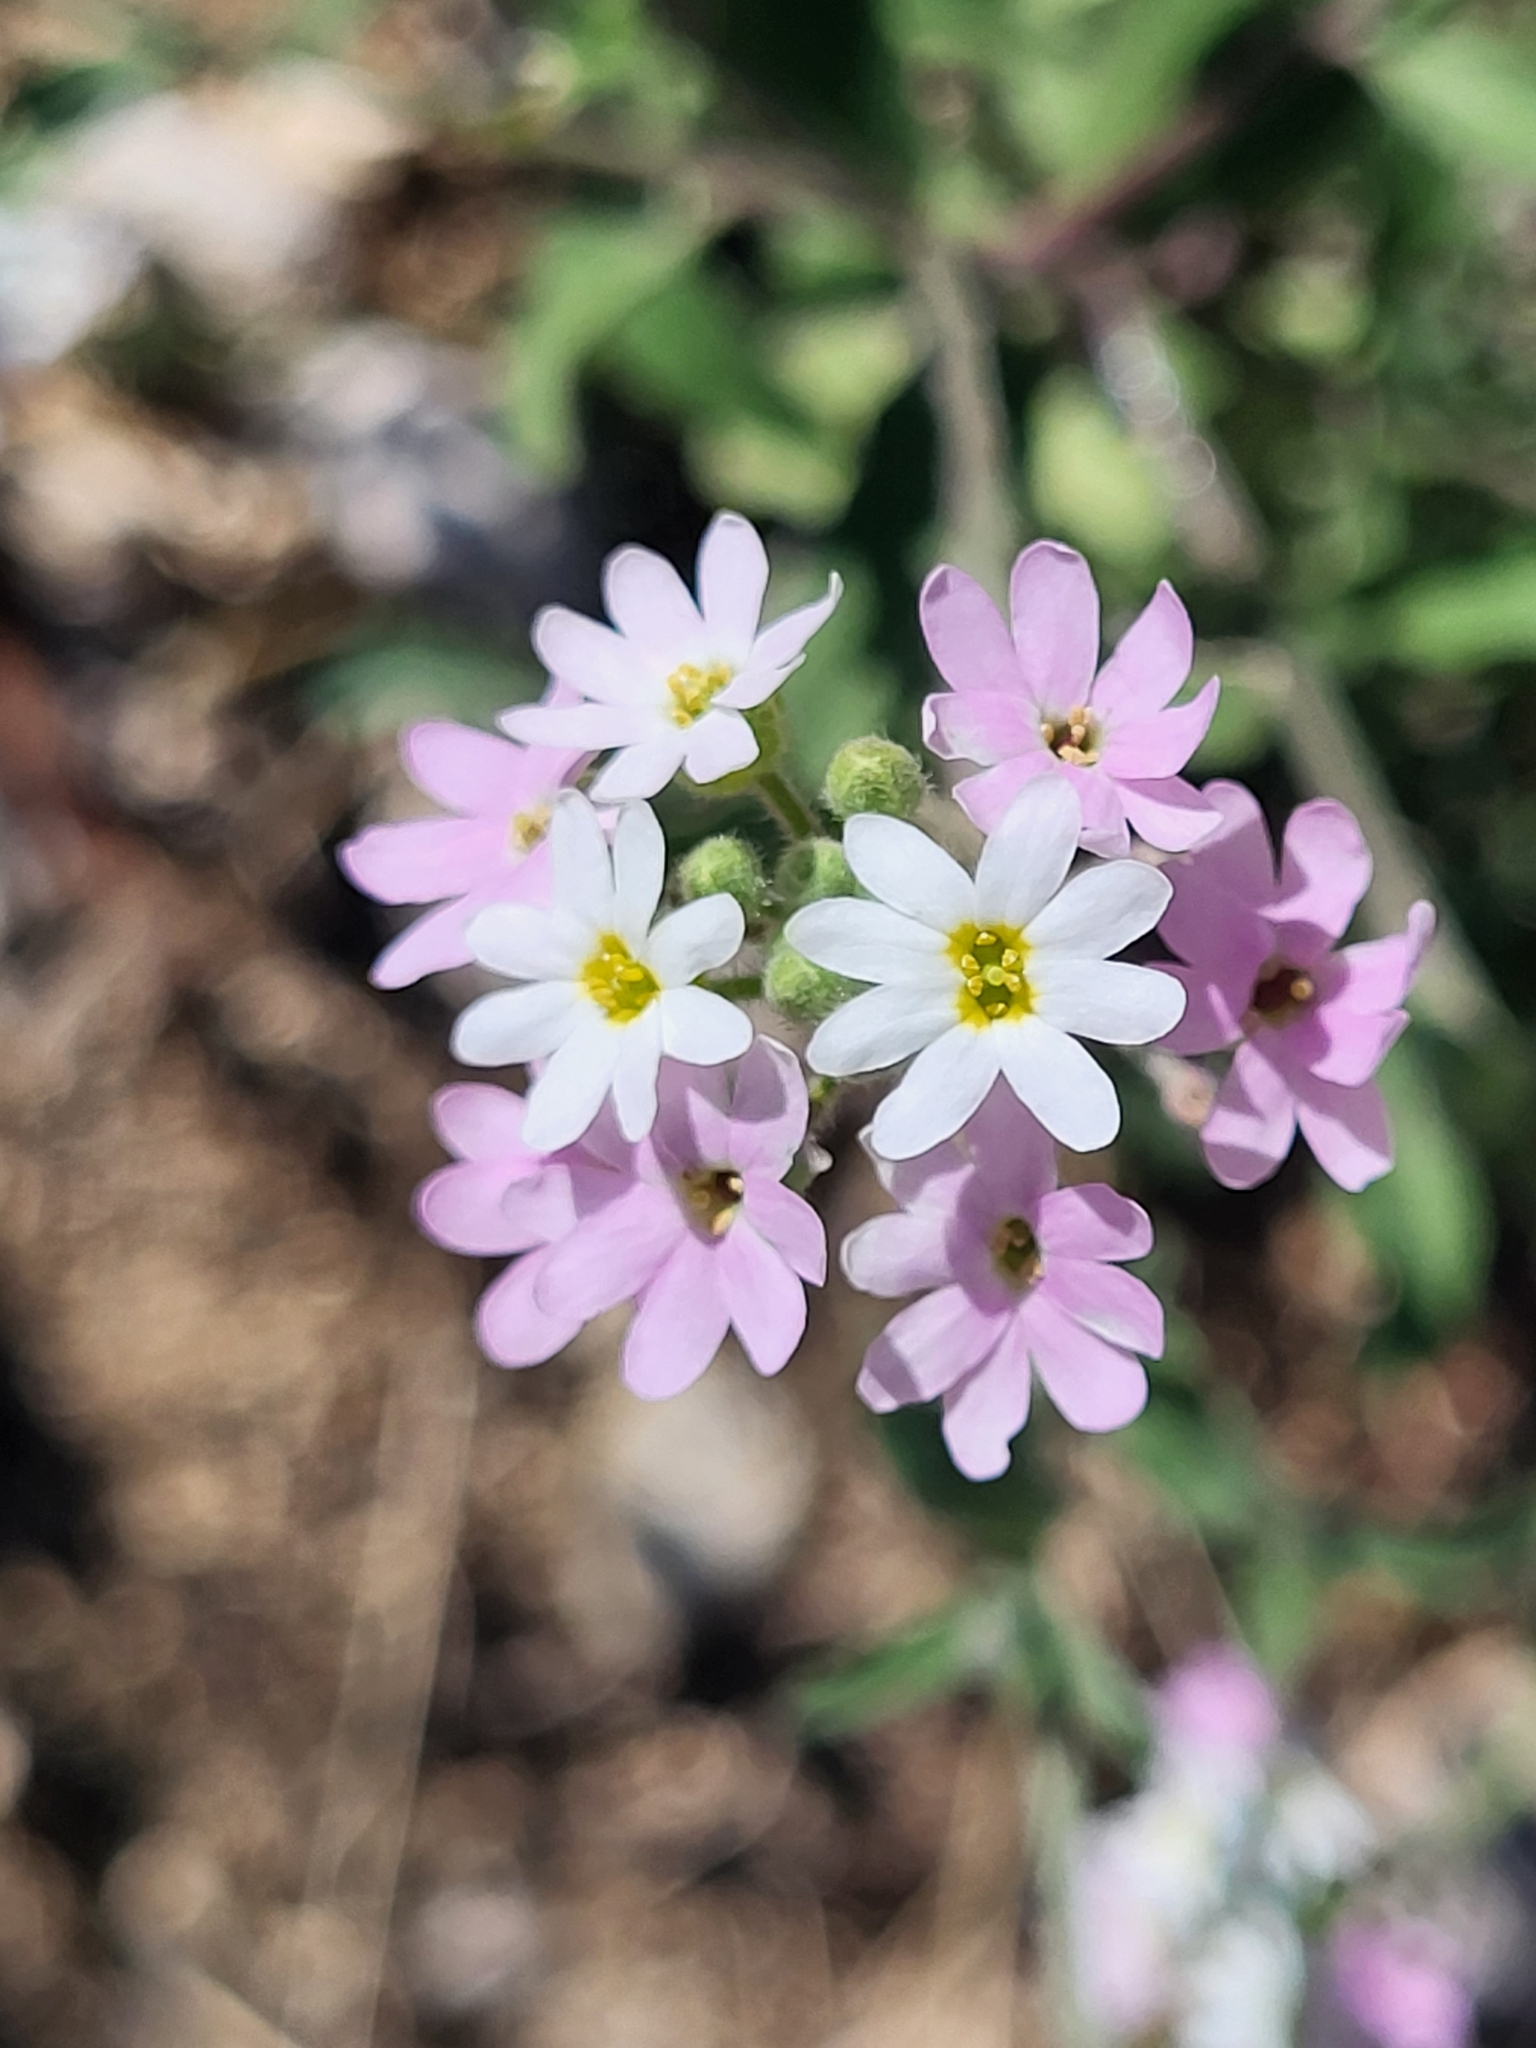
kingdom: Plantae
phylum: Tracheophyta
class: Magnoliopsida
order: Brassicales
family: Brassicaceae
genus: Berteroa
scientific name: Berteroa incana
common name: Hoary alison
